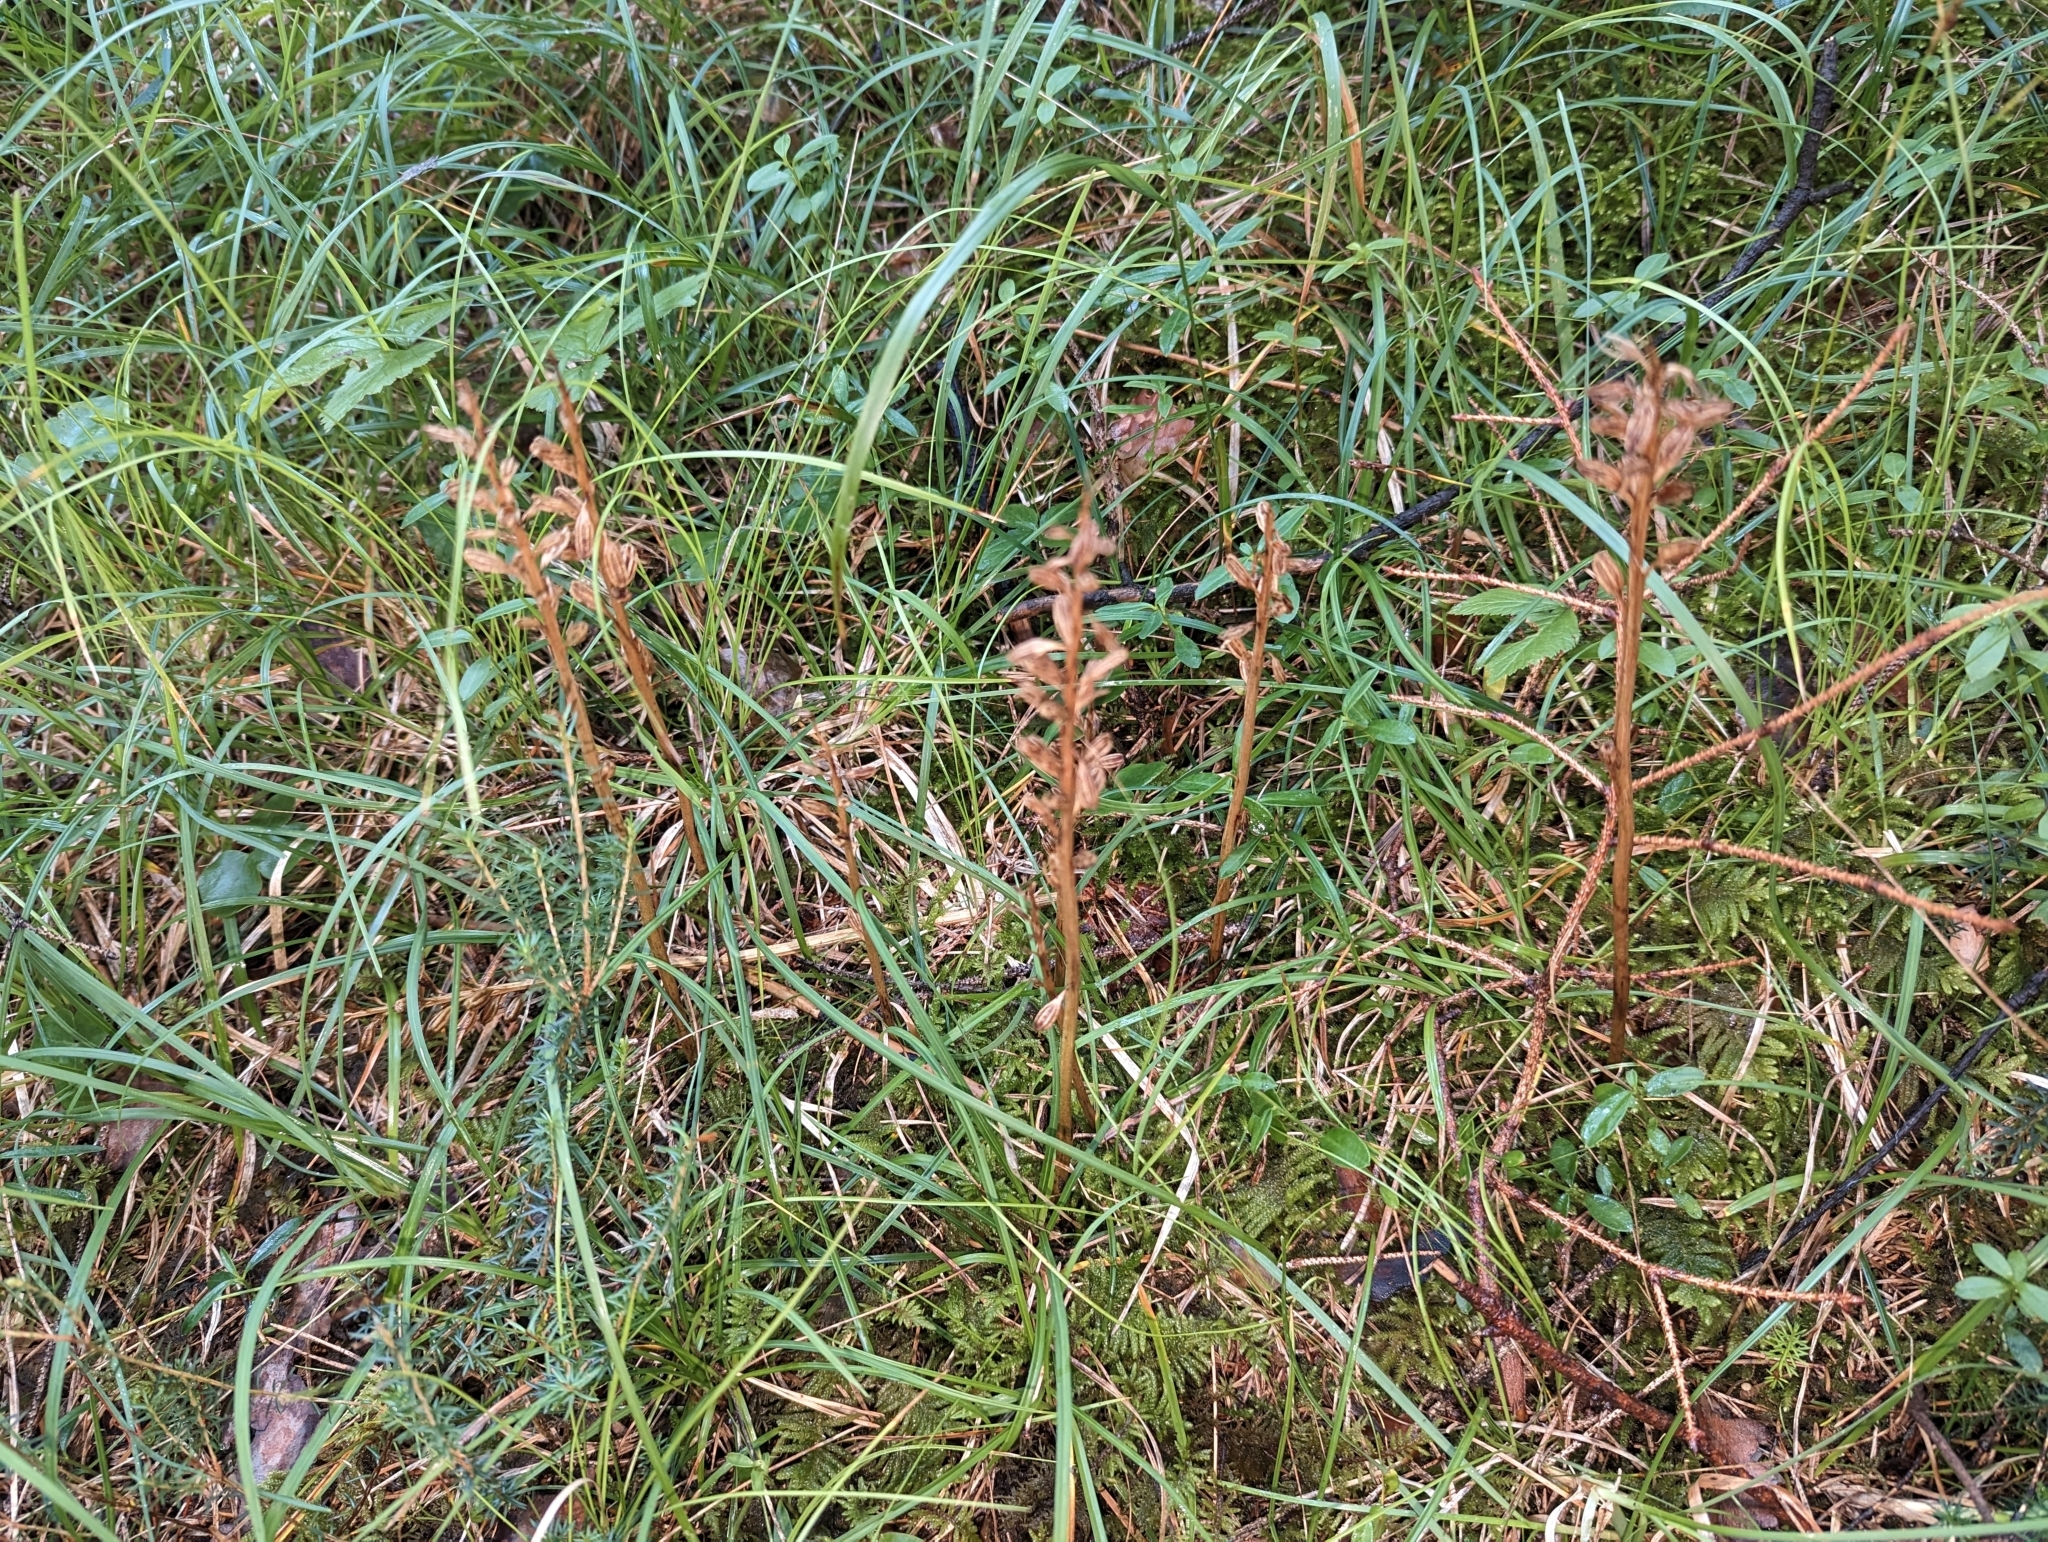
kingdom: Plantae
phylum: Tracheophyta
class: Liliopsida
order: Asparagales
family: Orchidaceae
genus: Neottia
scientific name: Neottia nidus-avis
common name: Bird's-nest orchid
